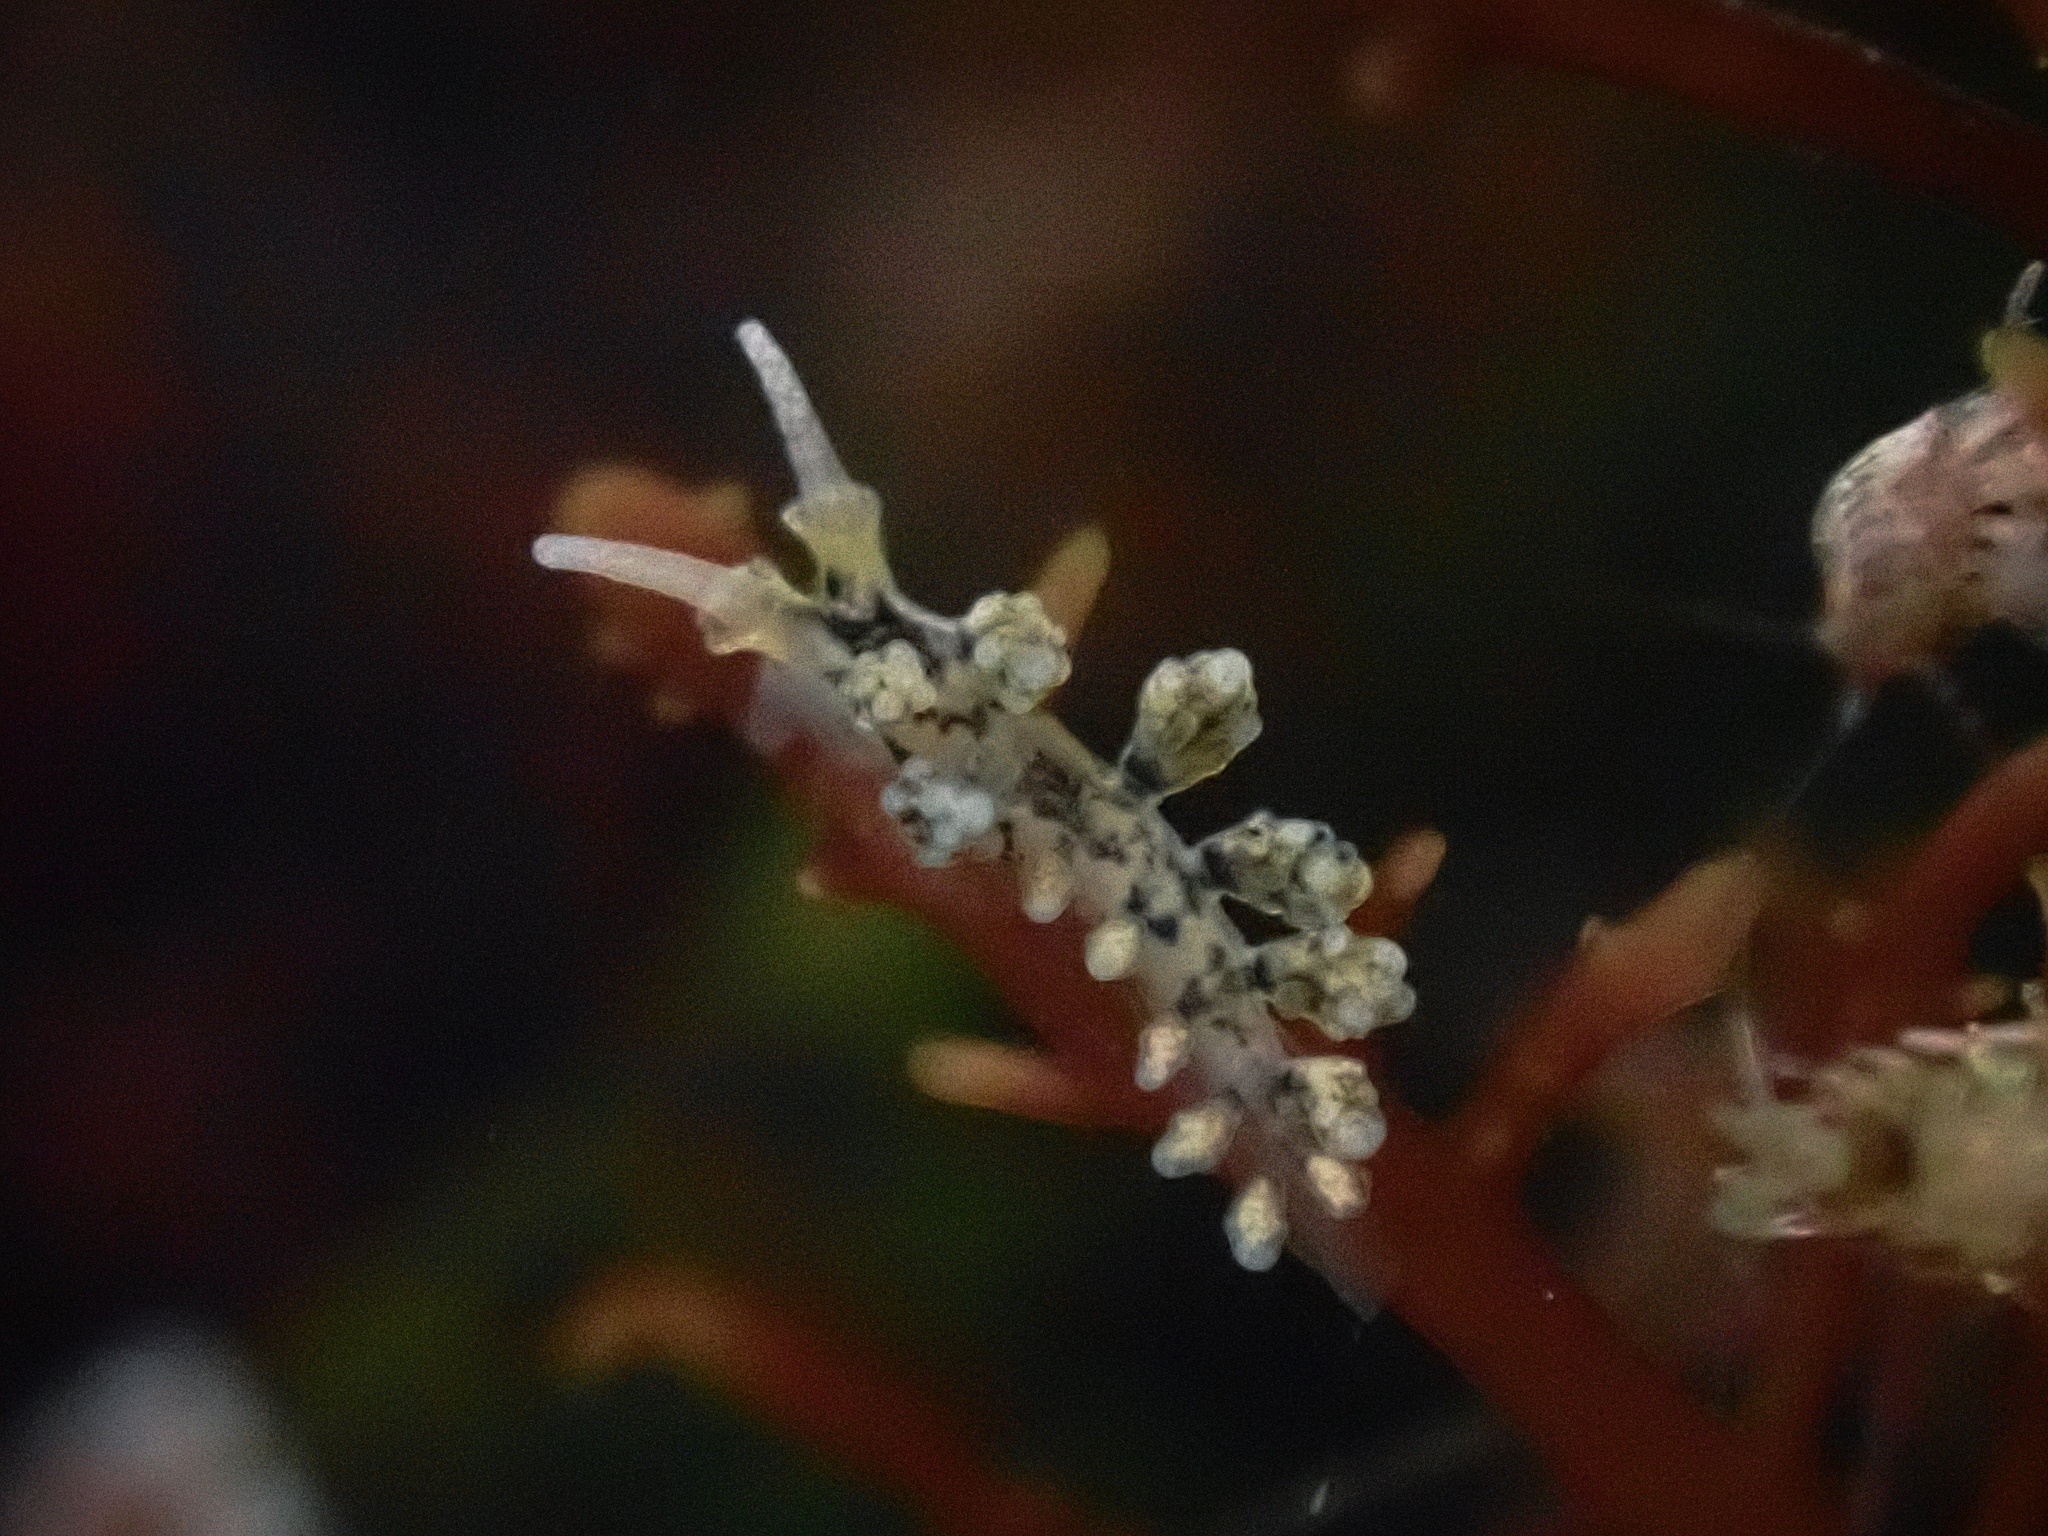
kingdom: Animalia
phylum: Mollusca
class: Gastropoda
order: Nudibranchia
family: Dotidae
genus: Doto
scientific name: Doto kya
